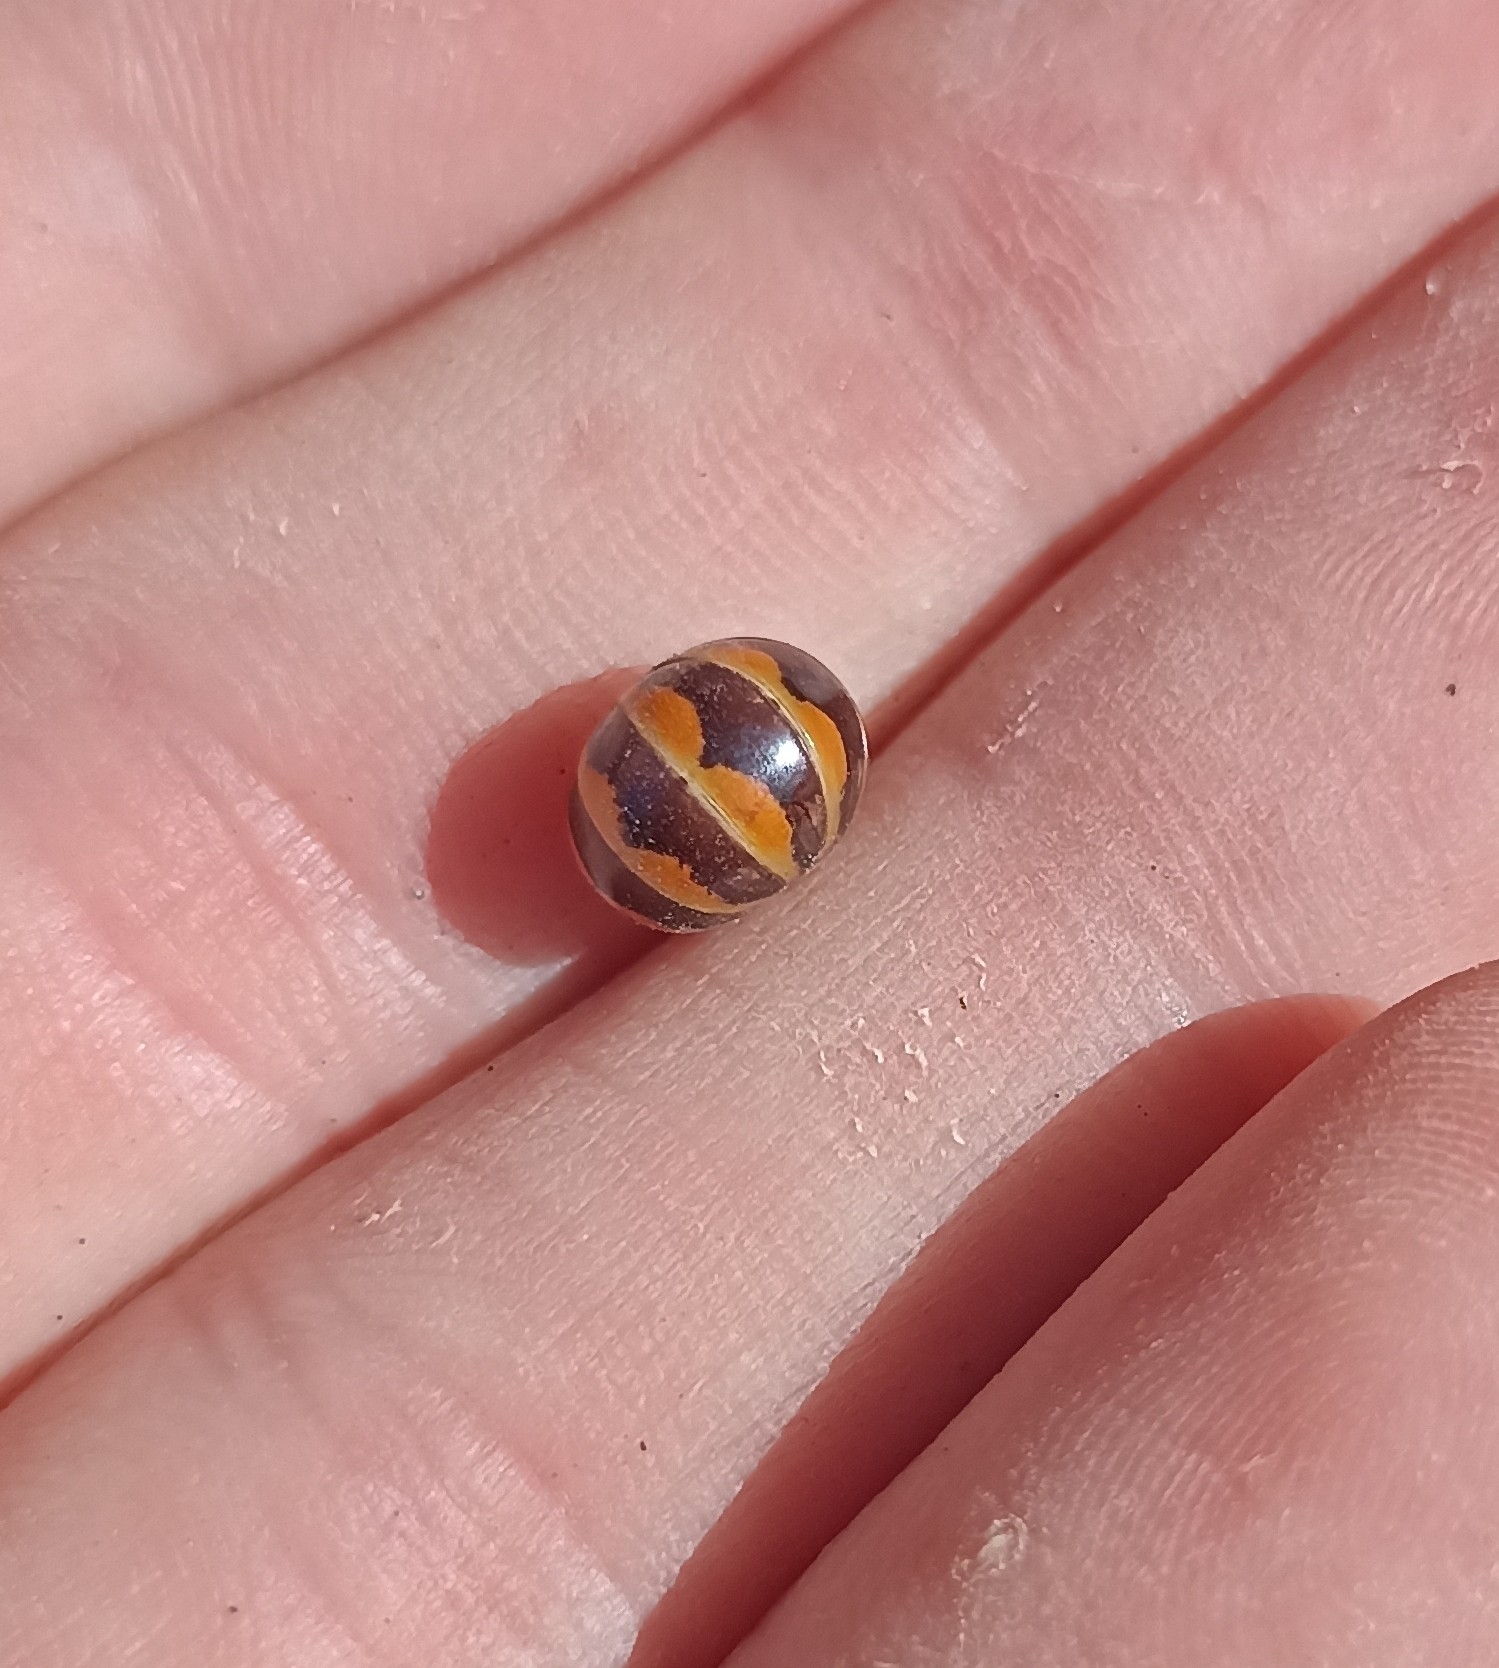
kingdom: Animalia
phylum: Arthropoda
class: Diplopoda
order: Glomerida
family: Glomeridae
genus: Glomeris
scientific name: Glomeris pulchra
